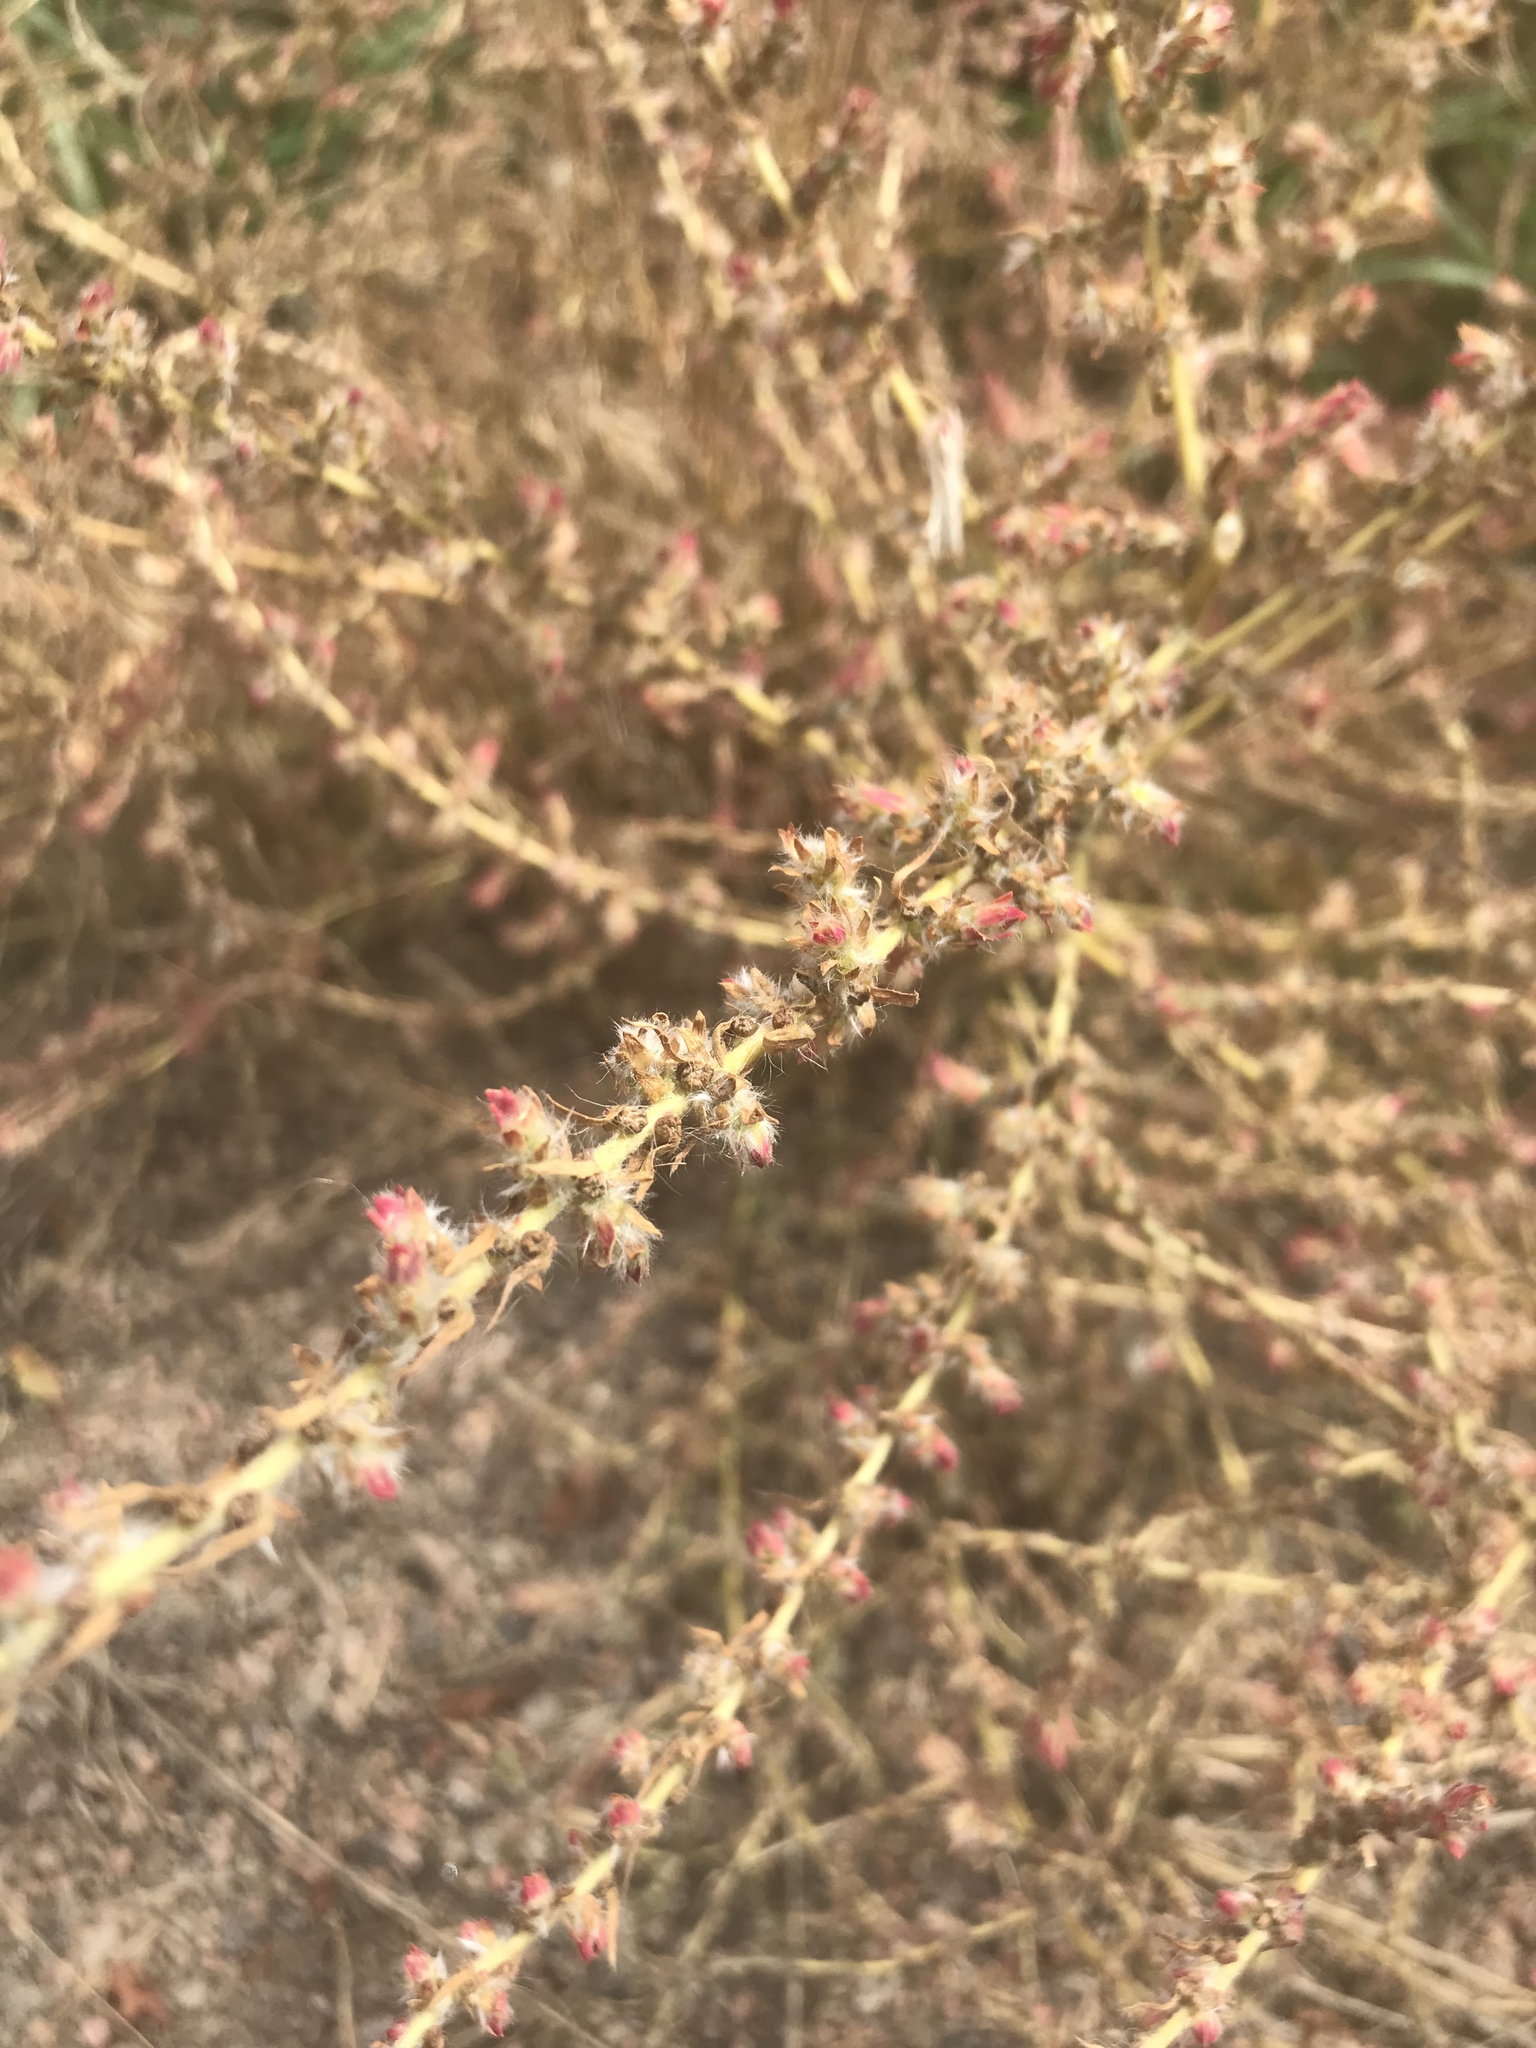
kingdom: Plantae
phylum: Tracheophyta
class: Magnoliopsida
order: Caryophyllales
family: Amaranthaceae
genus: Salsola
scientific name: Salsola tragus
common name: Prickly russian thistle
